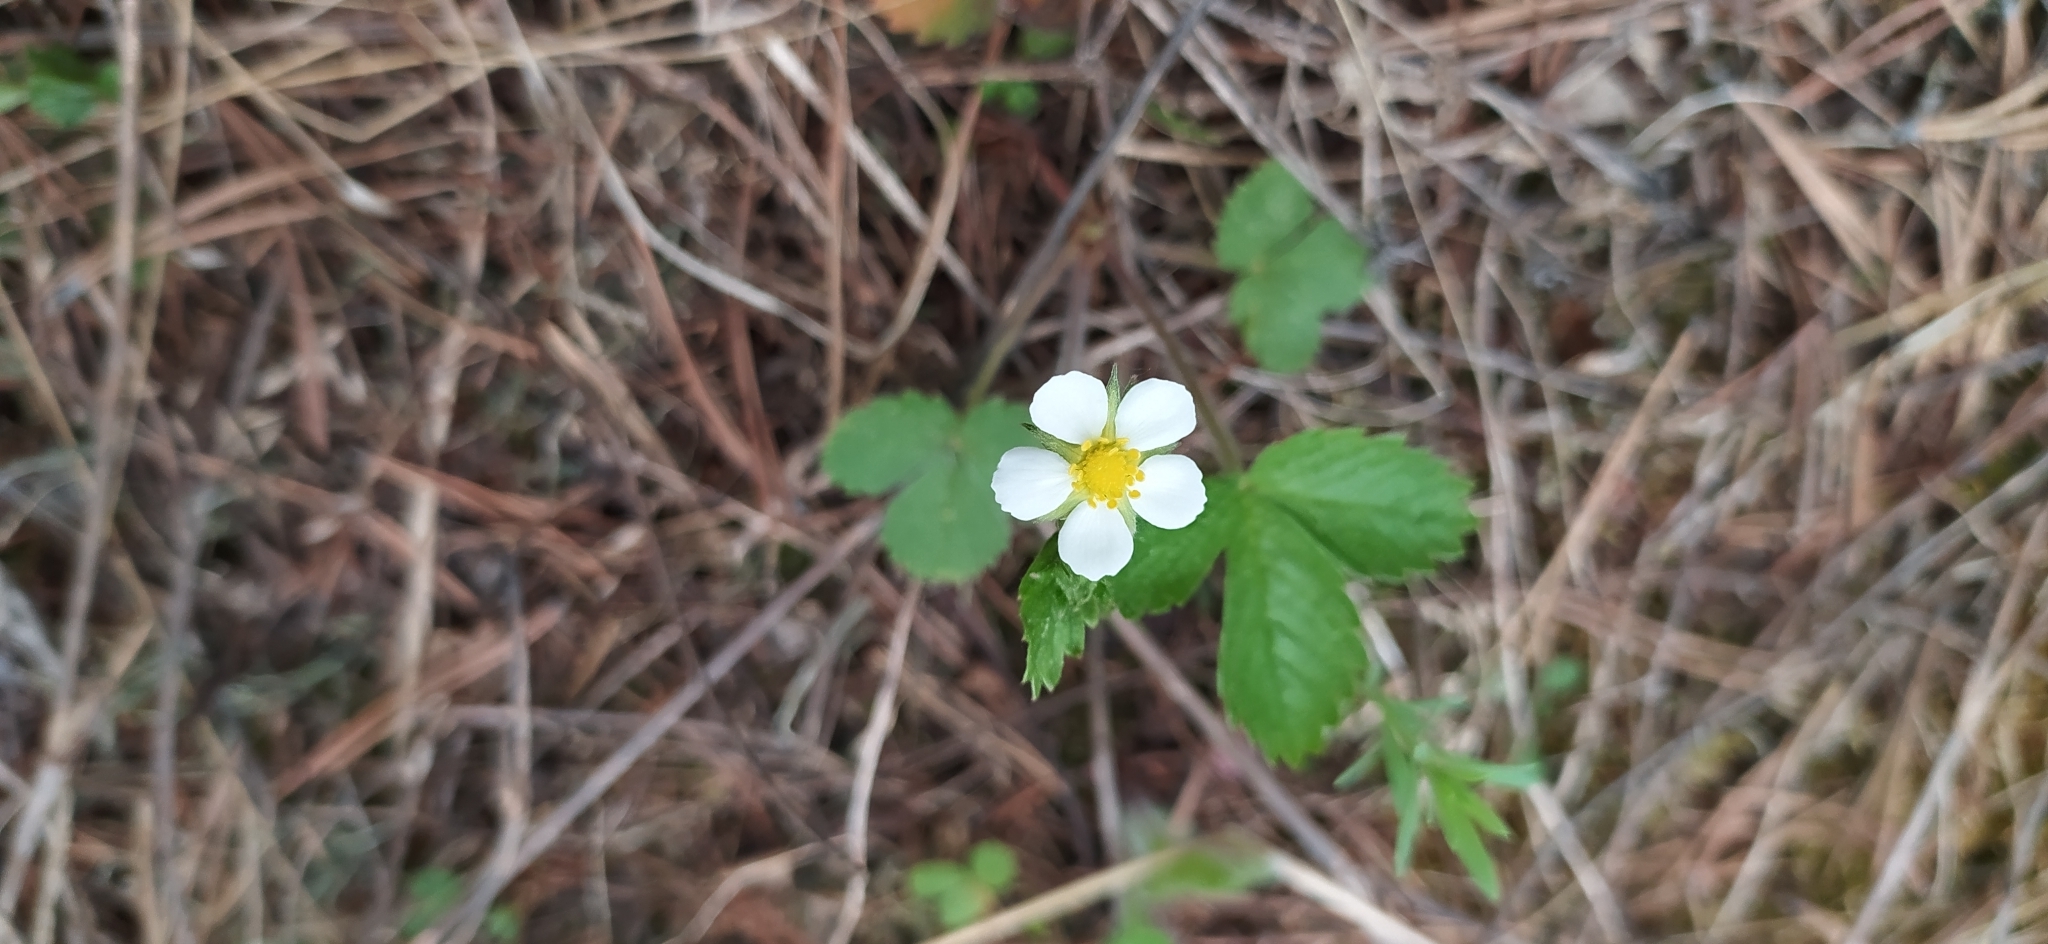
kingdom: Plantae
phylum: Tracheophyta
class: Magnoliopsida
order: Rosales
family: Rosaceae
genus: Fragaria
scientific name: Fragaria vesca
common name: Wild strawberry
